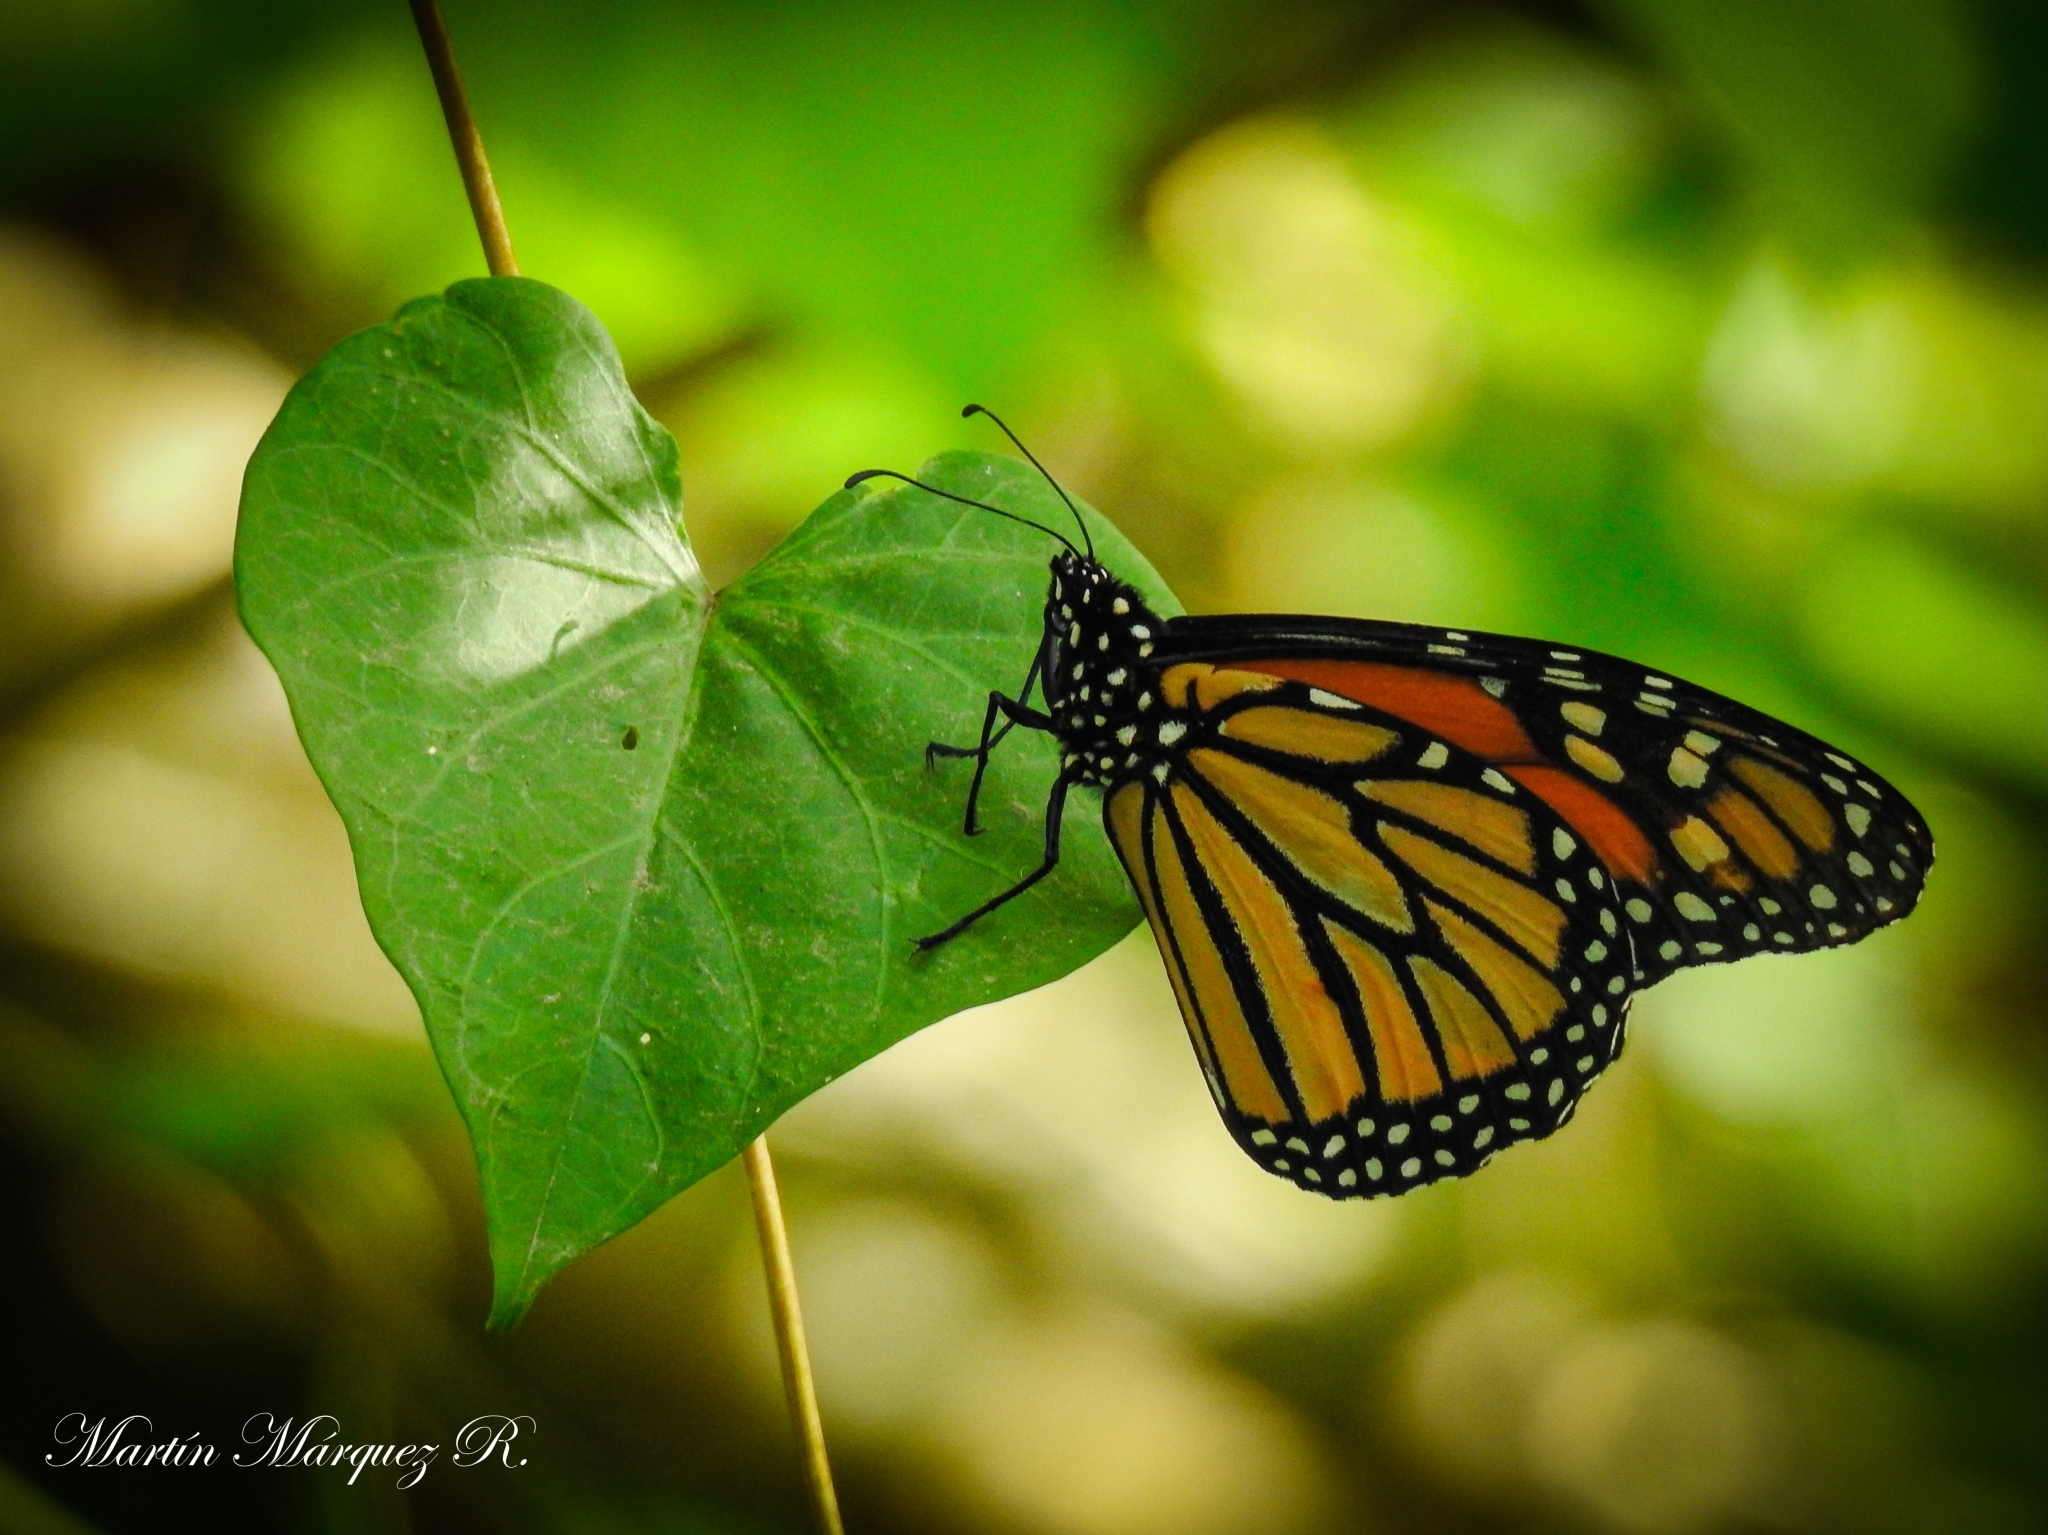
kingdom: Animalia
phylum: Arthropoda
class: Insecta
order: Lepidoptera
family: Nymphalidae
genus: Danaus
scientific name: Danaus plexippus
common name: Monarch
